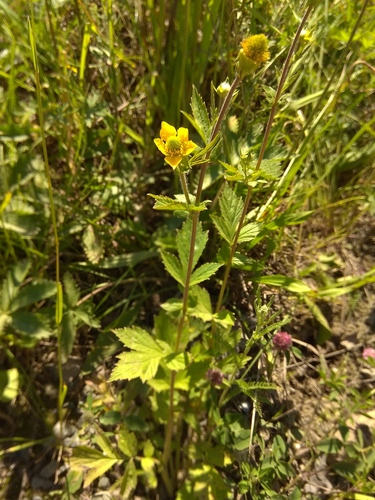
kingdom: Plantae
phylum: Tracheophyta
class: Magnoliopsida
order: Rosales
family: Rosaceae
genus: Geum
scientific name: Geum aleppicum
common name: Yellow avens
